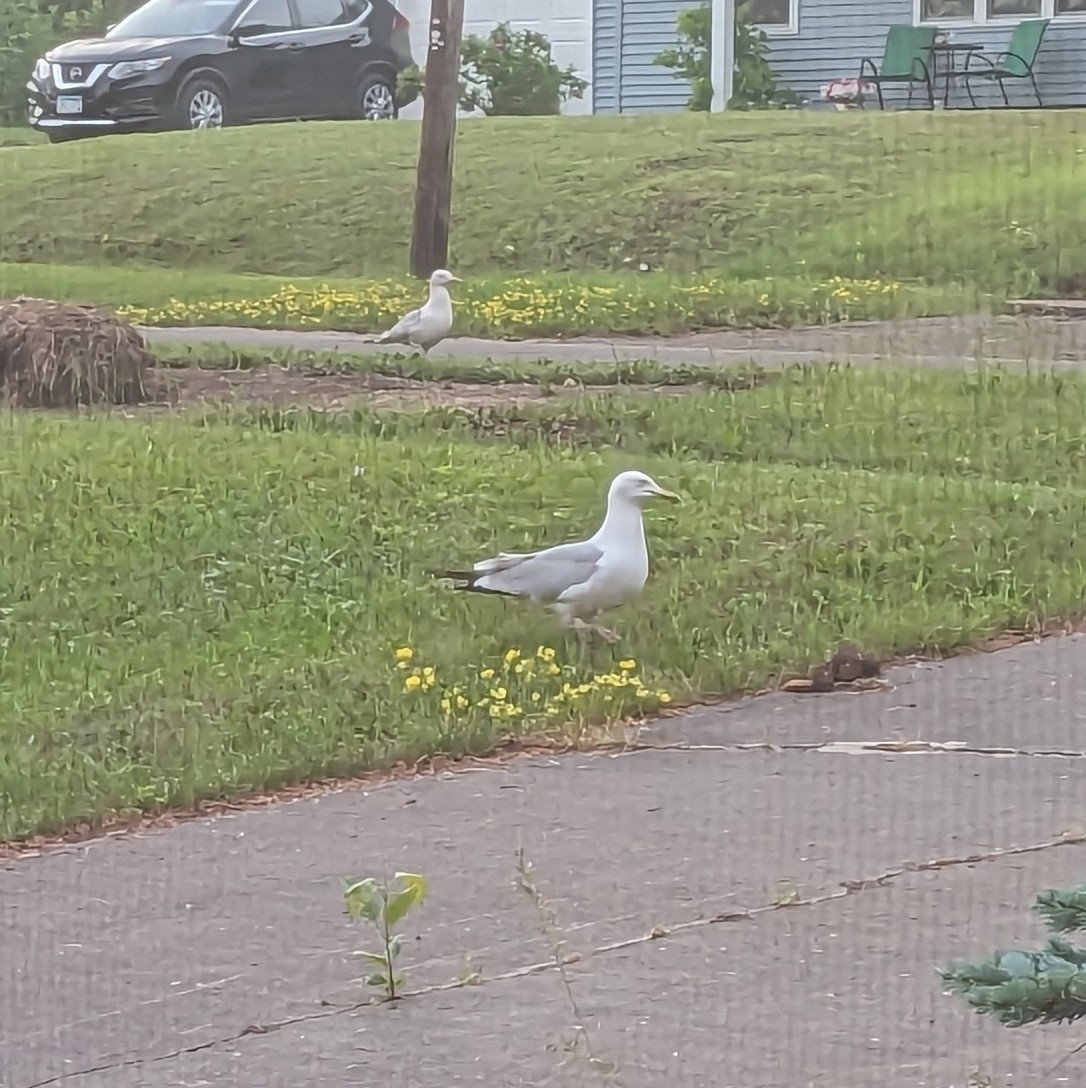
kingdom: Animalia
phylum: Chordata
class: Aves
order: Charadriiformes
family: Laridae
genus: Larus
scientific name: Larus argentatus
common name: Herring gull
